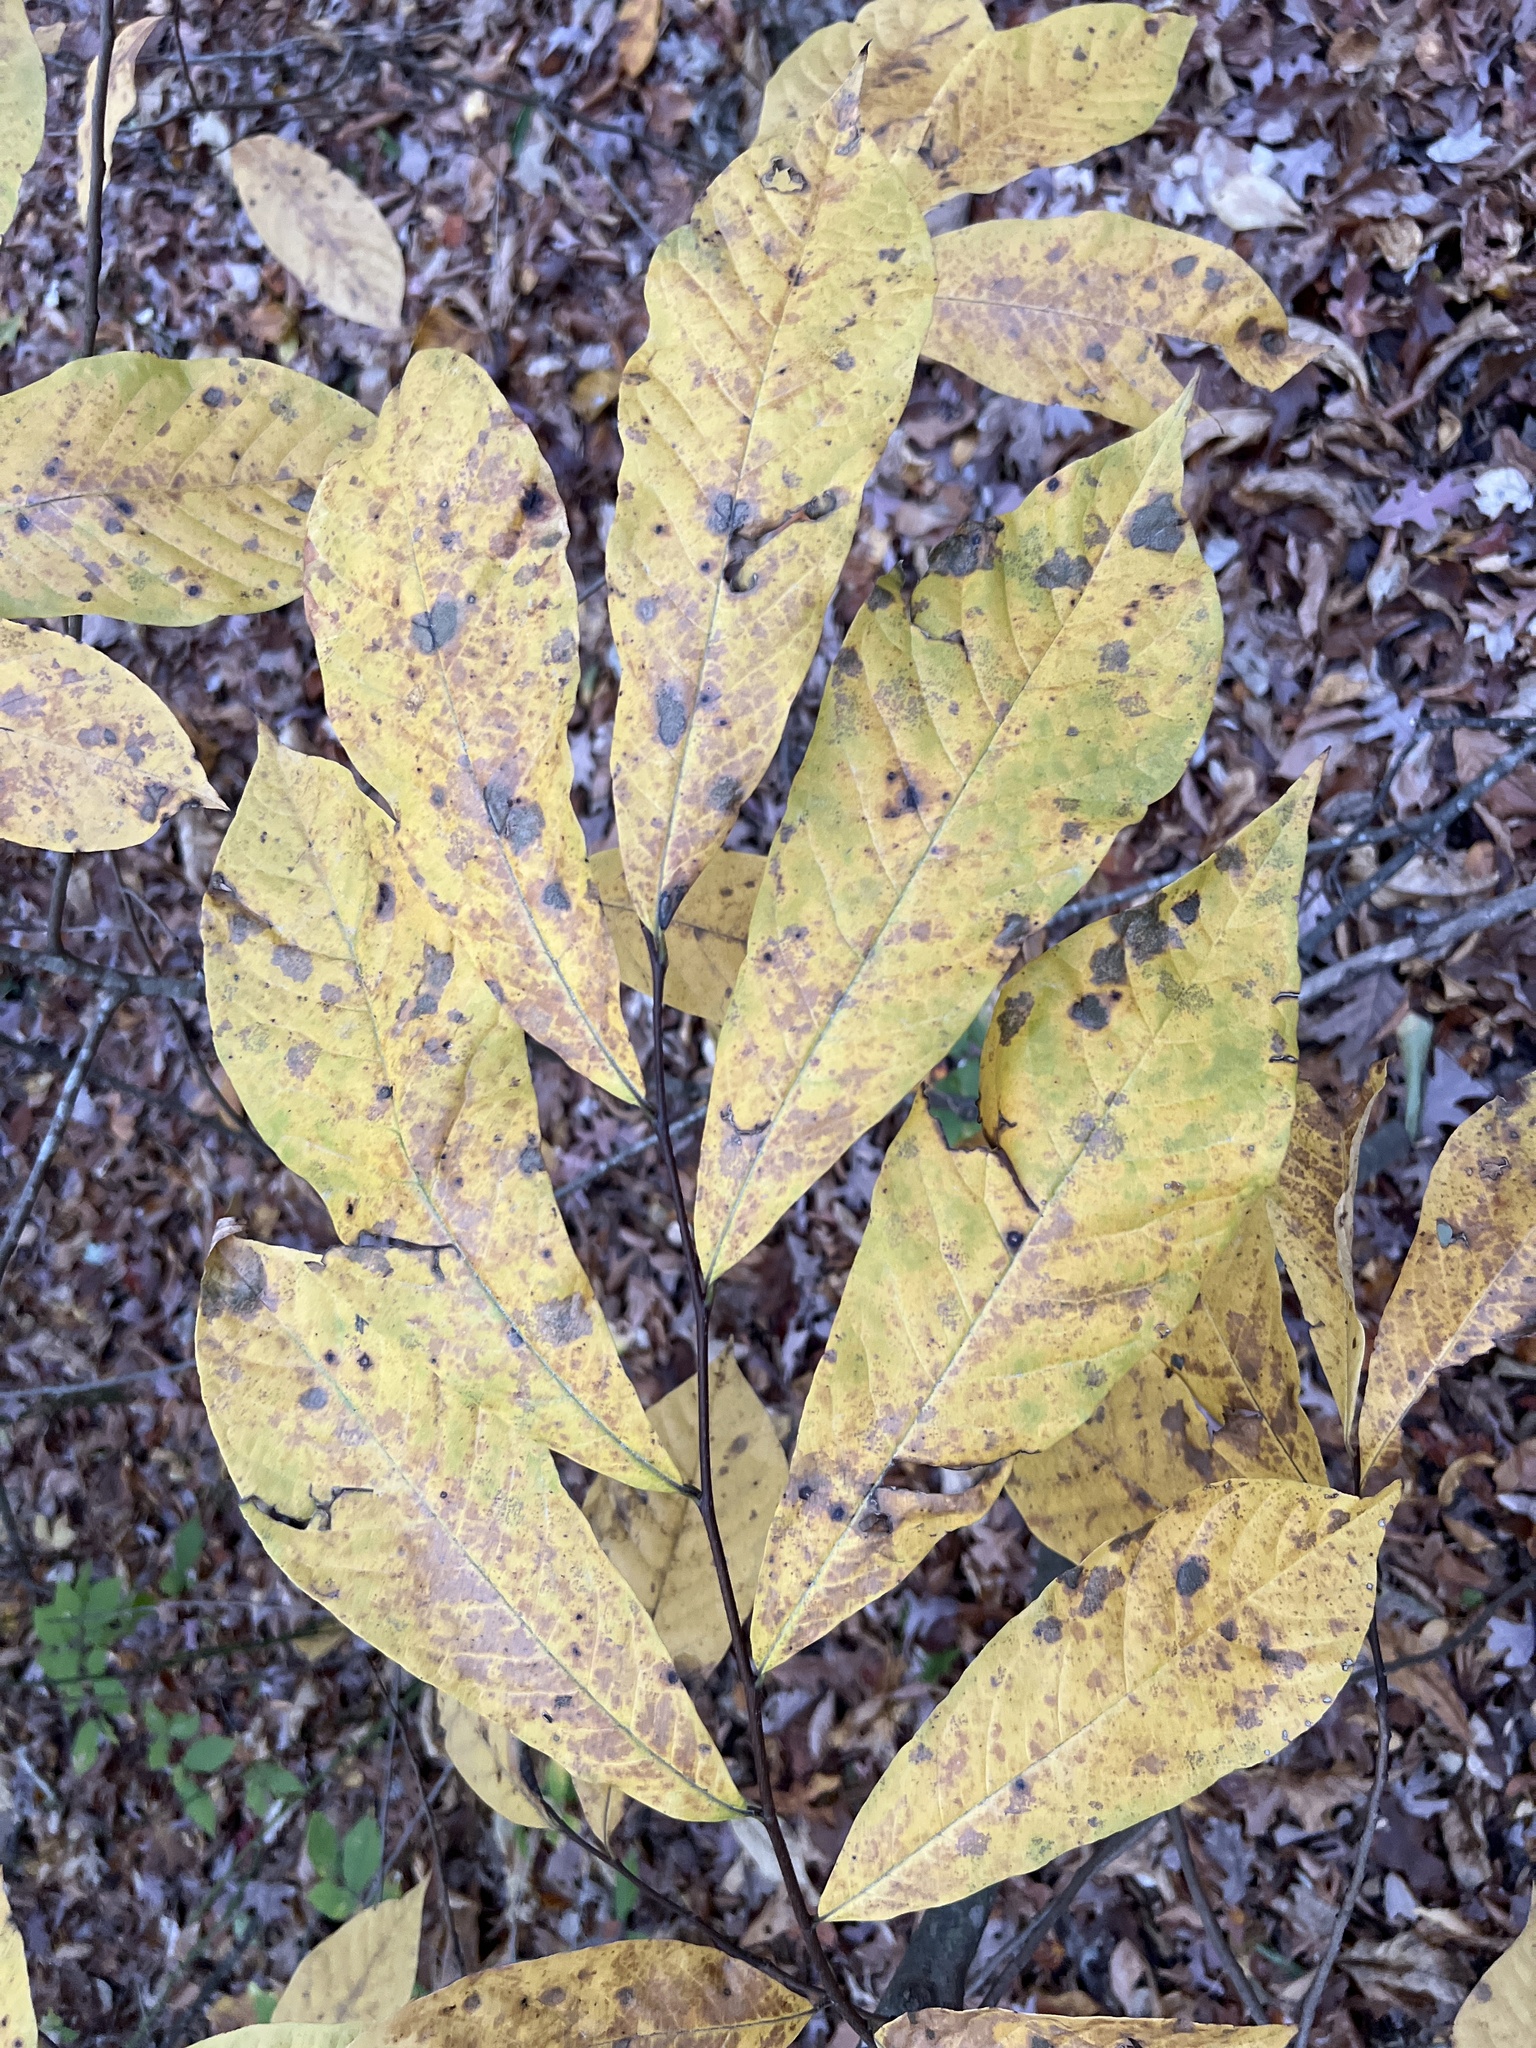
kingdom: Plantae
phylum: Tracheophyta
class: Magnoliopsida
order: Magnoliales
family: Annonaceae
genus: Asimina
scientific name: Asimina triloba
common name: Dog-banana
